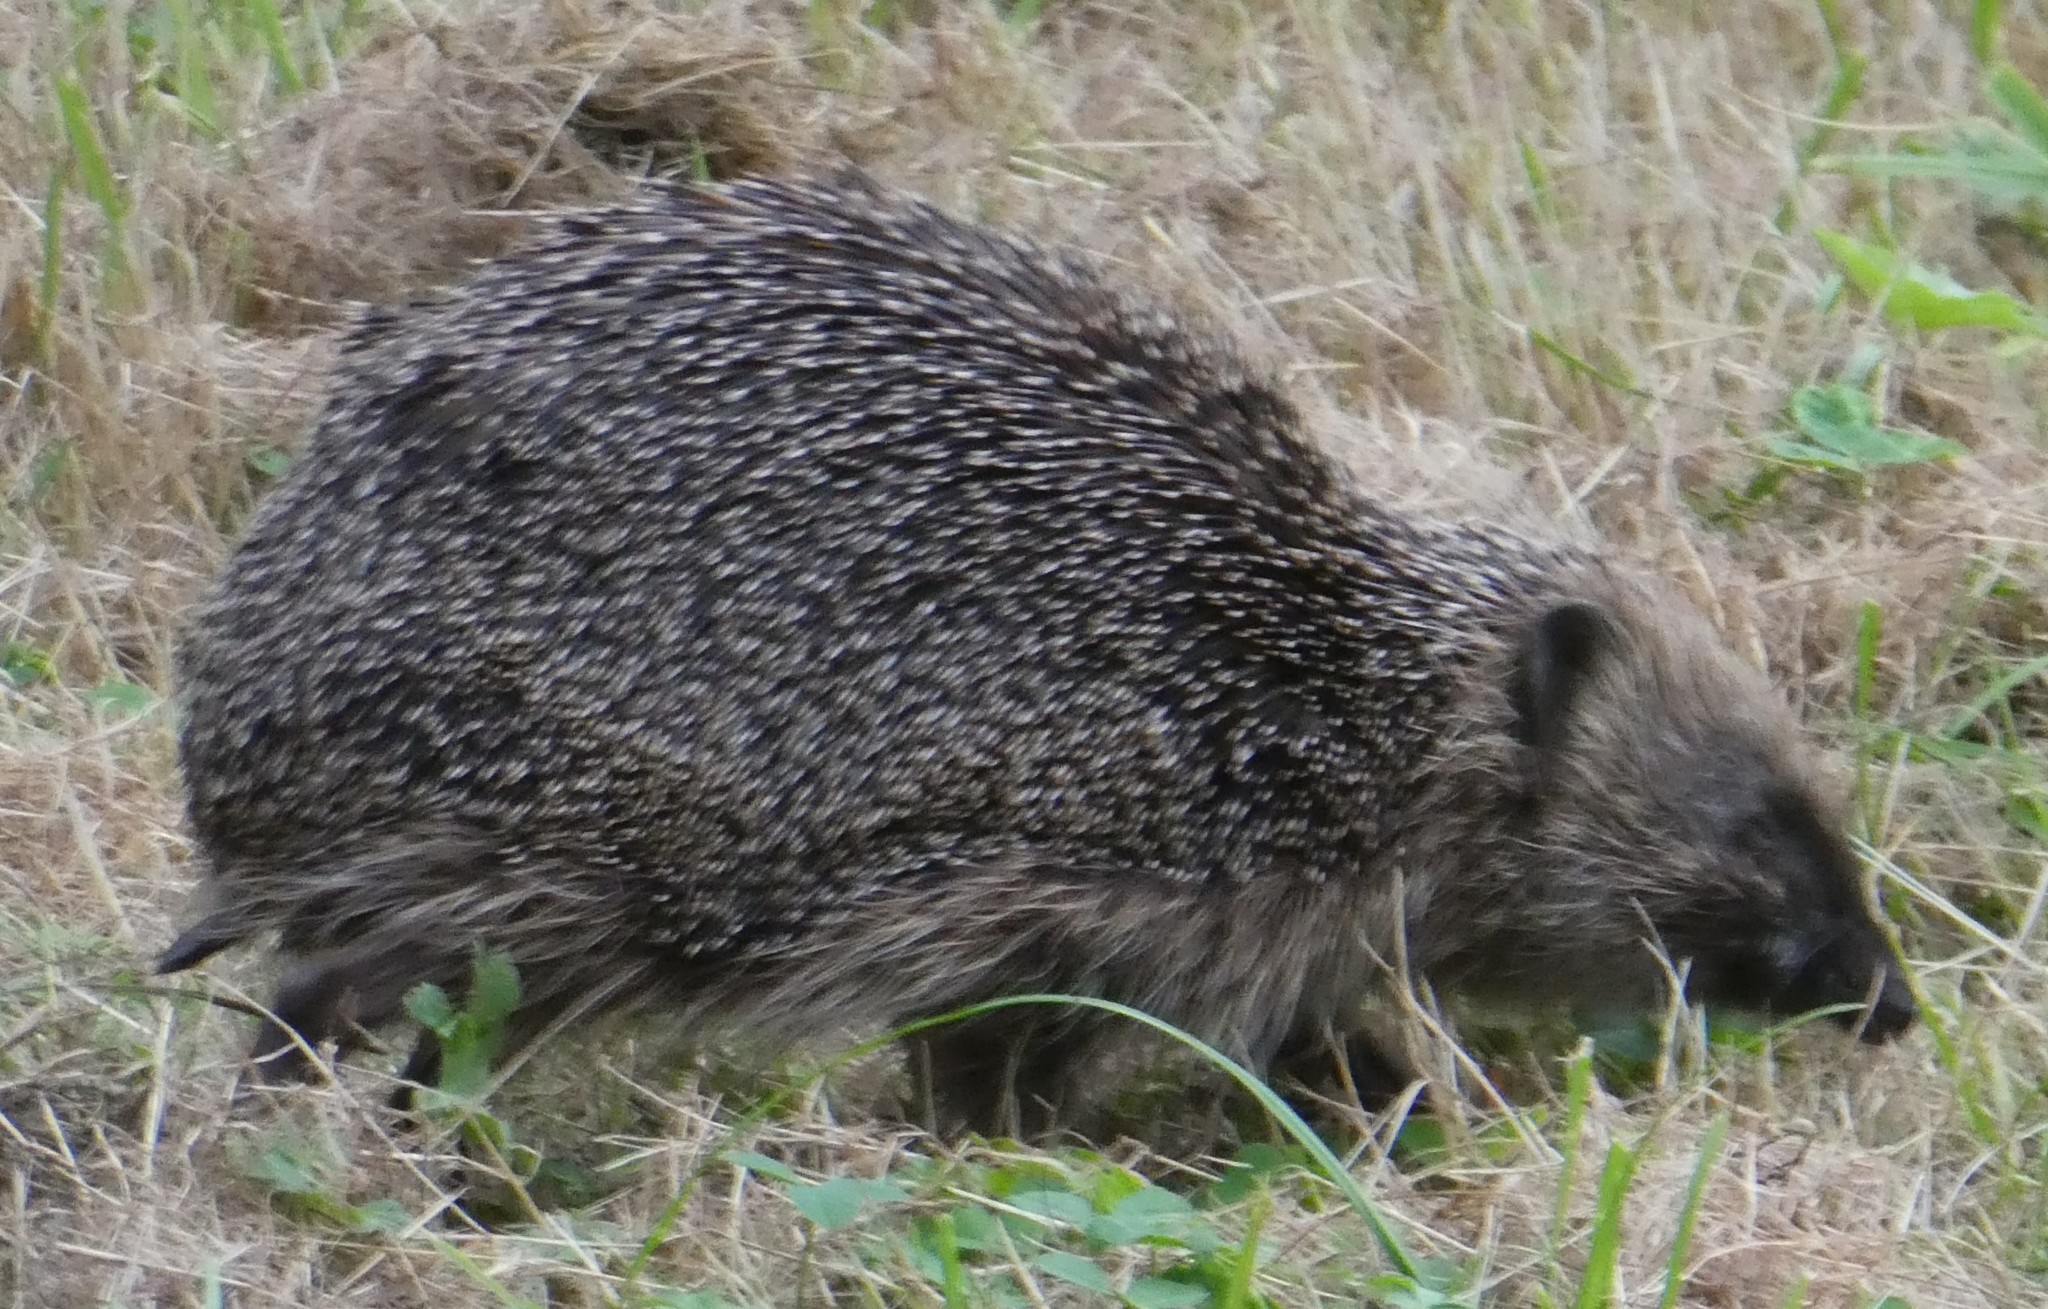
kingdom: Animalia
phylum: Chordata
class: Mammalia
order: Erinaceomorpha
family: Erinaceidae
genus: Erinaceus
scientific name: Erinaceus europaeus
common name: West european hedgehog
